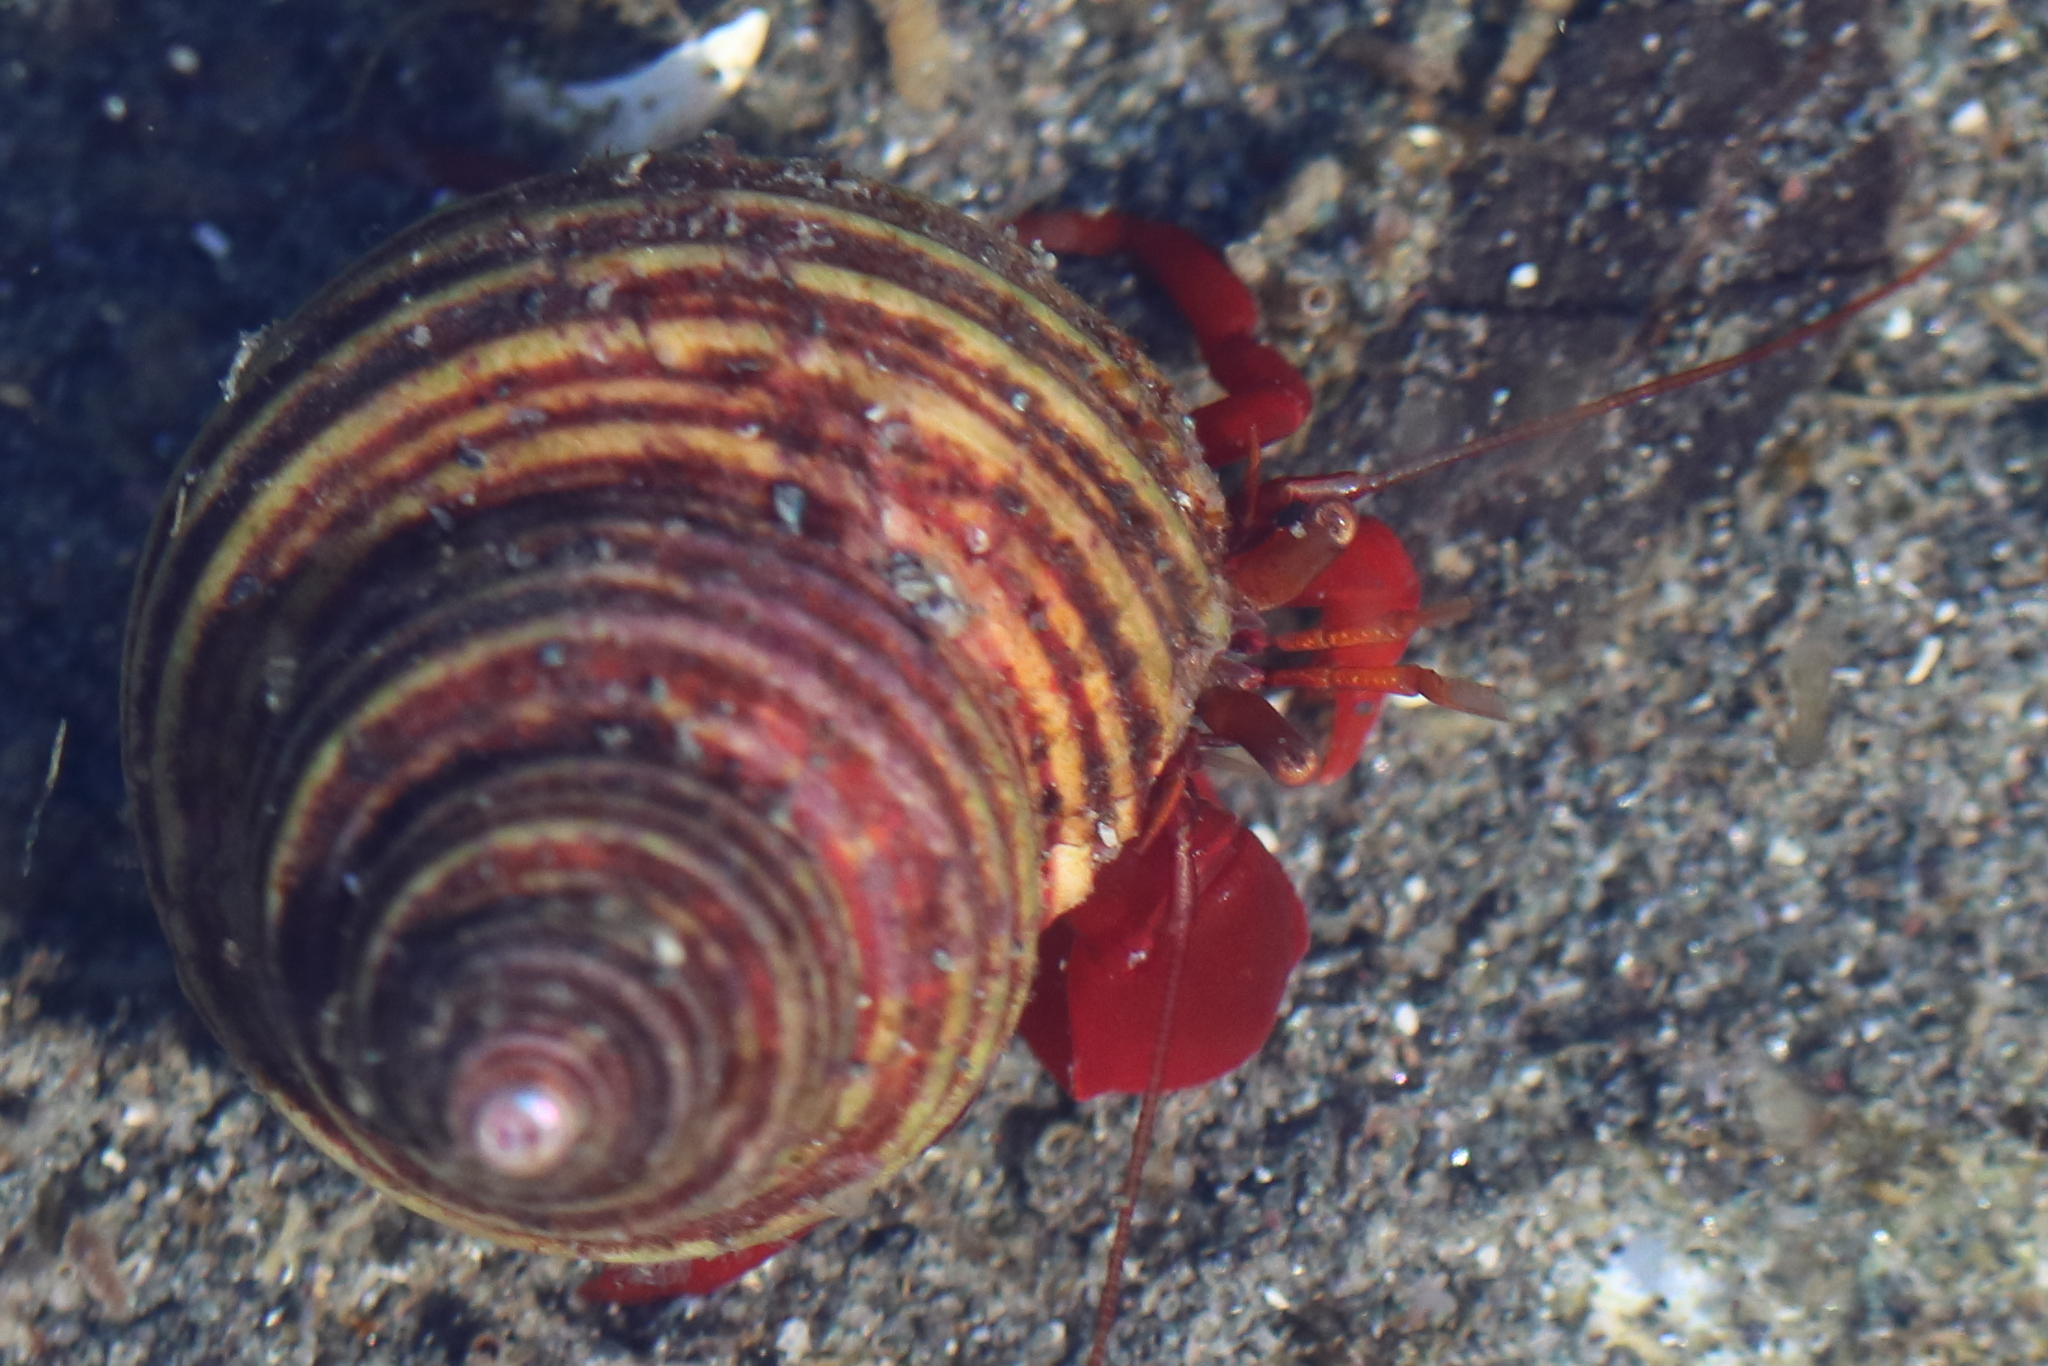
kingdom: Animalia
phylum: Arthropoda
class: Malacostraca
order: Decapoda
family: Paguridae
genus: Elassochirus
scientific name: Elassochirus gilli
